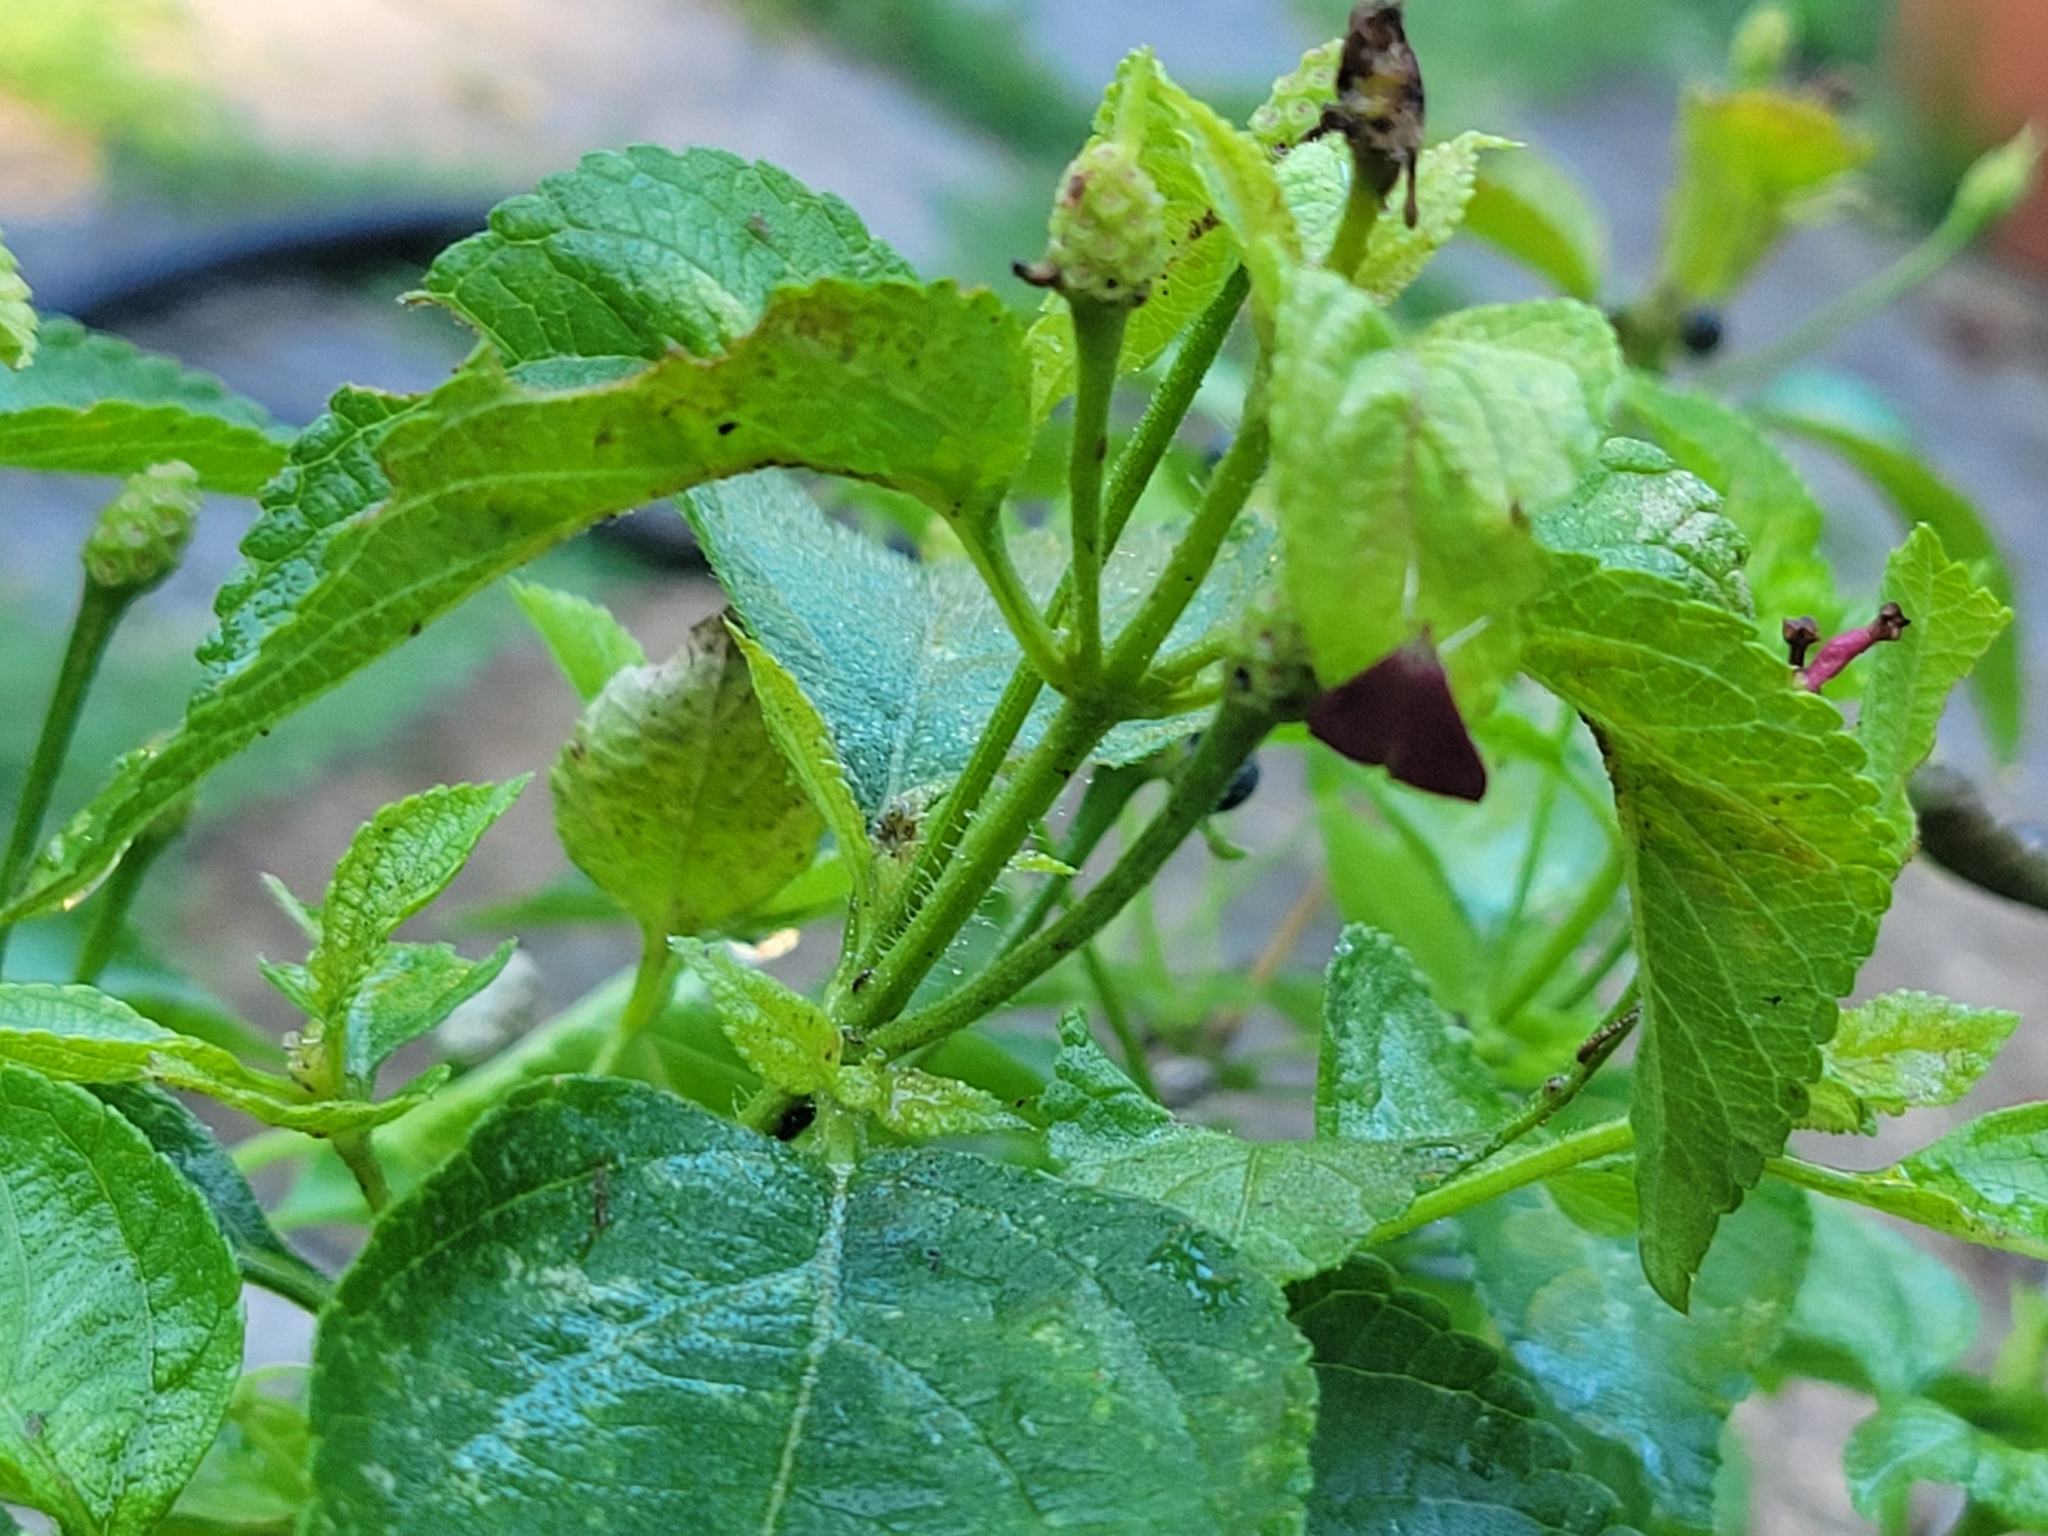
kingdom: Animalia
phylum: Arthropoda
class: Insecta
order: Lepidoptera
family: Crambidae
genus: Pyrausta
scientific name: Pyrausta inornatalis
